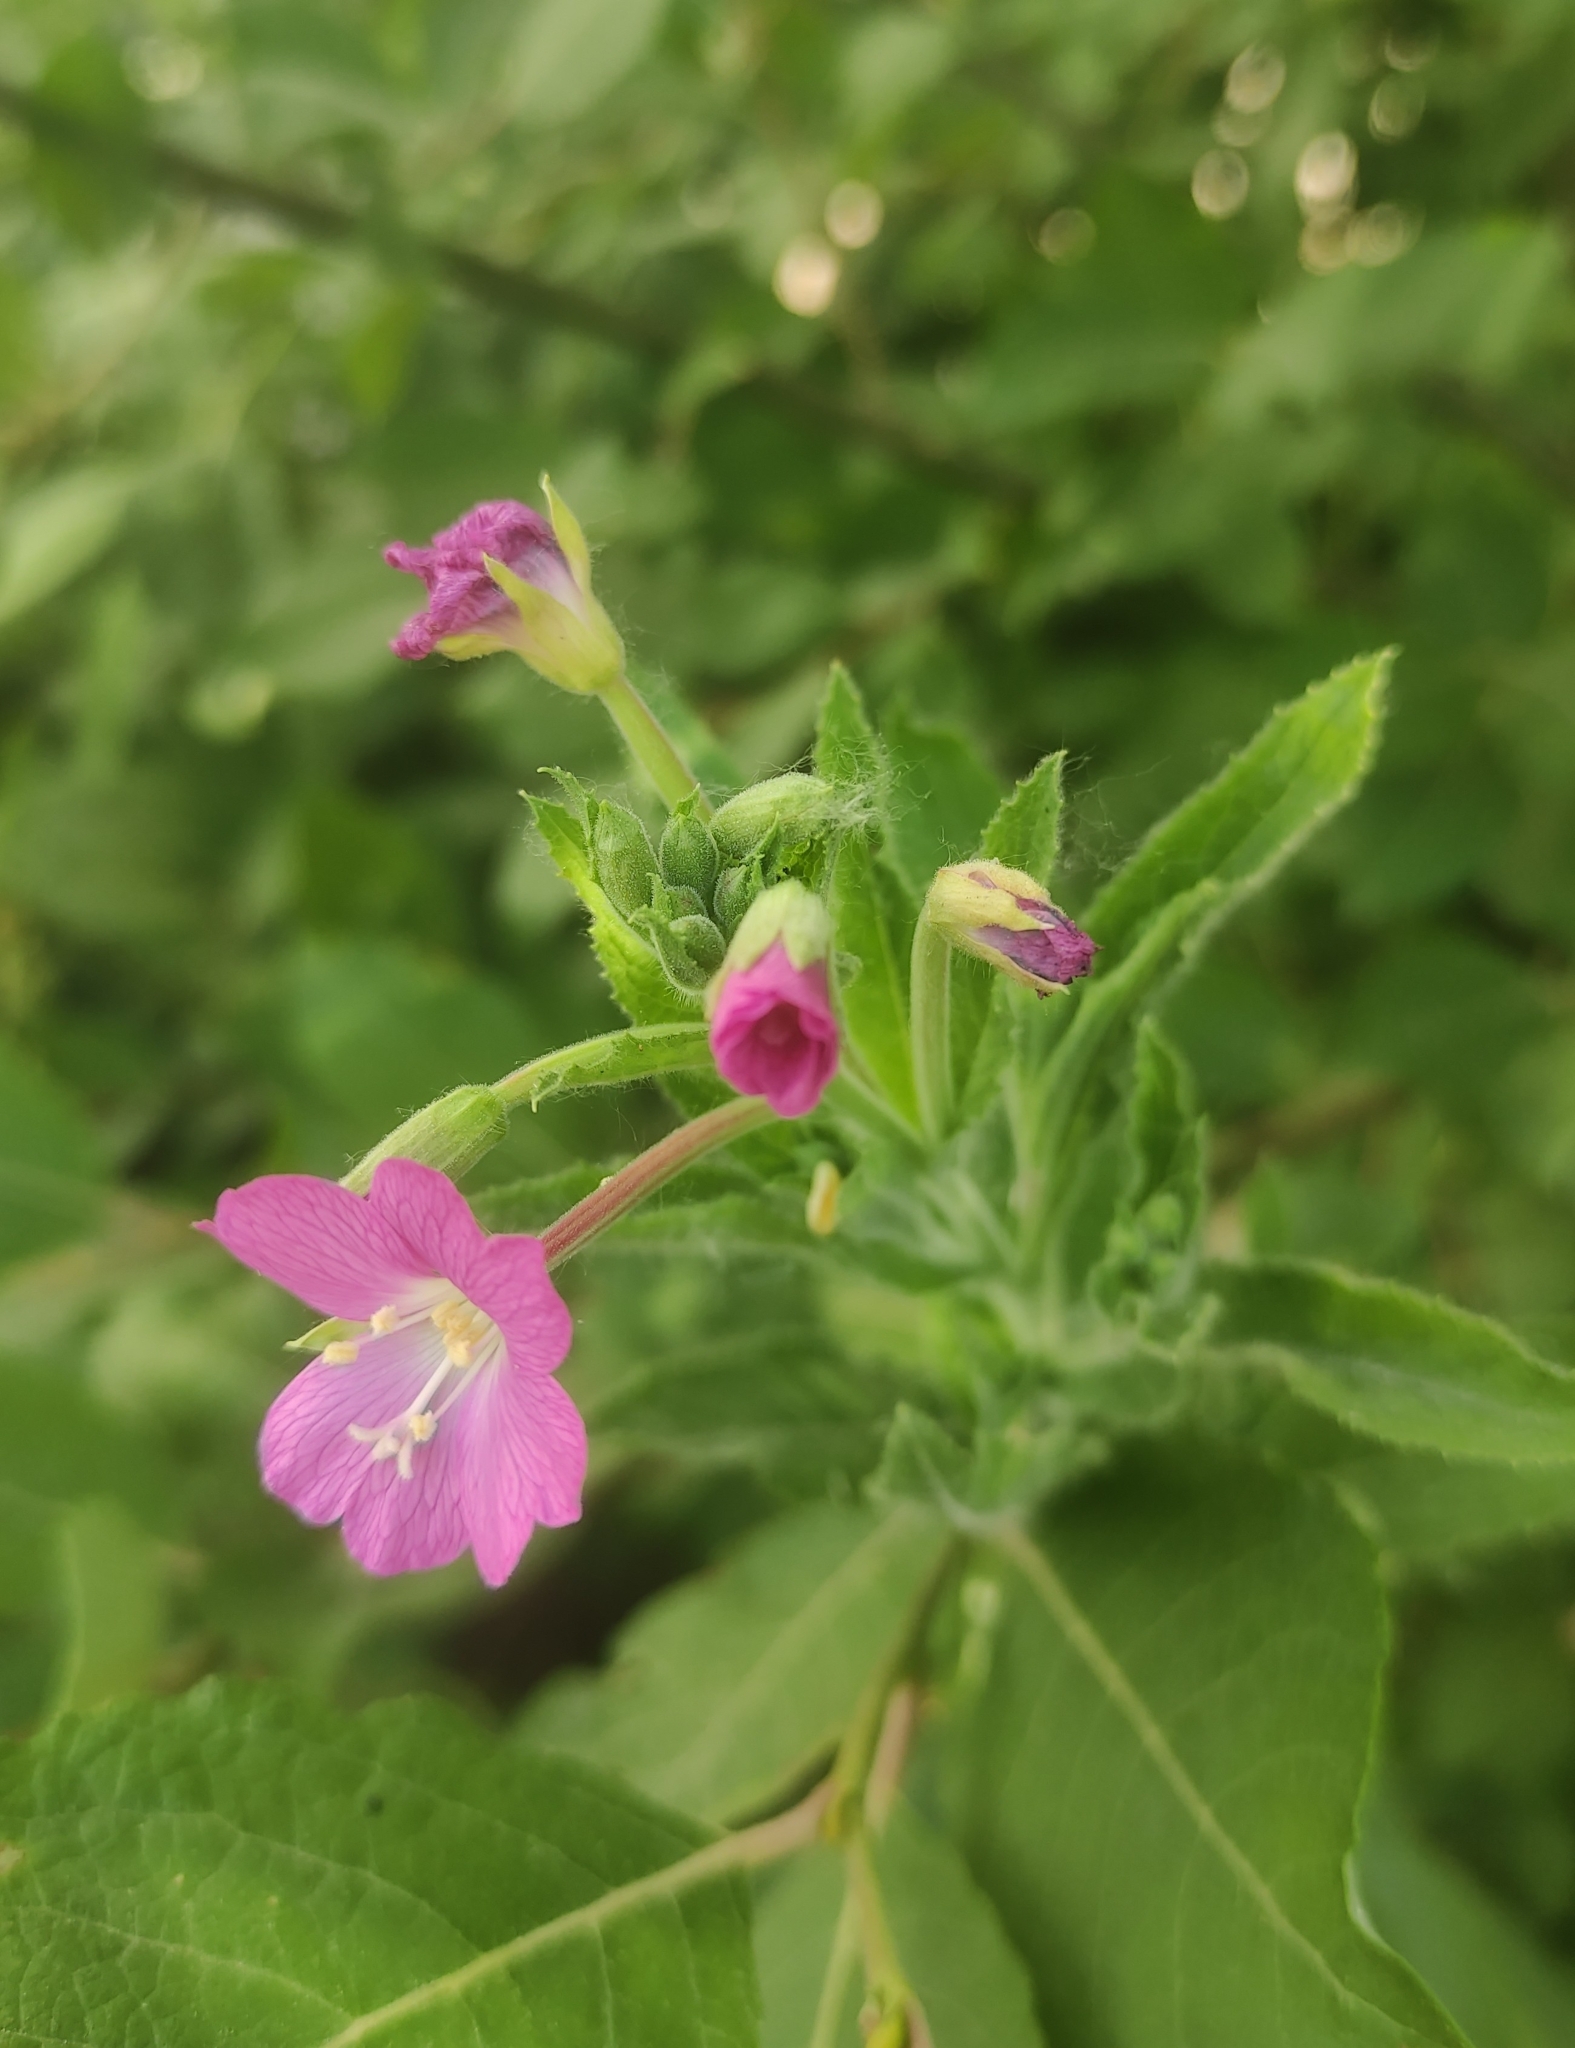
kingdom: Plantae
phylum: Tracheophyta
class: Magnoliopsida
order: Myrtales
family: Onagraceae
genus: Epilobium
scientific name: Epilobium hirsutum
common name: Great willowherb
